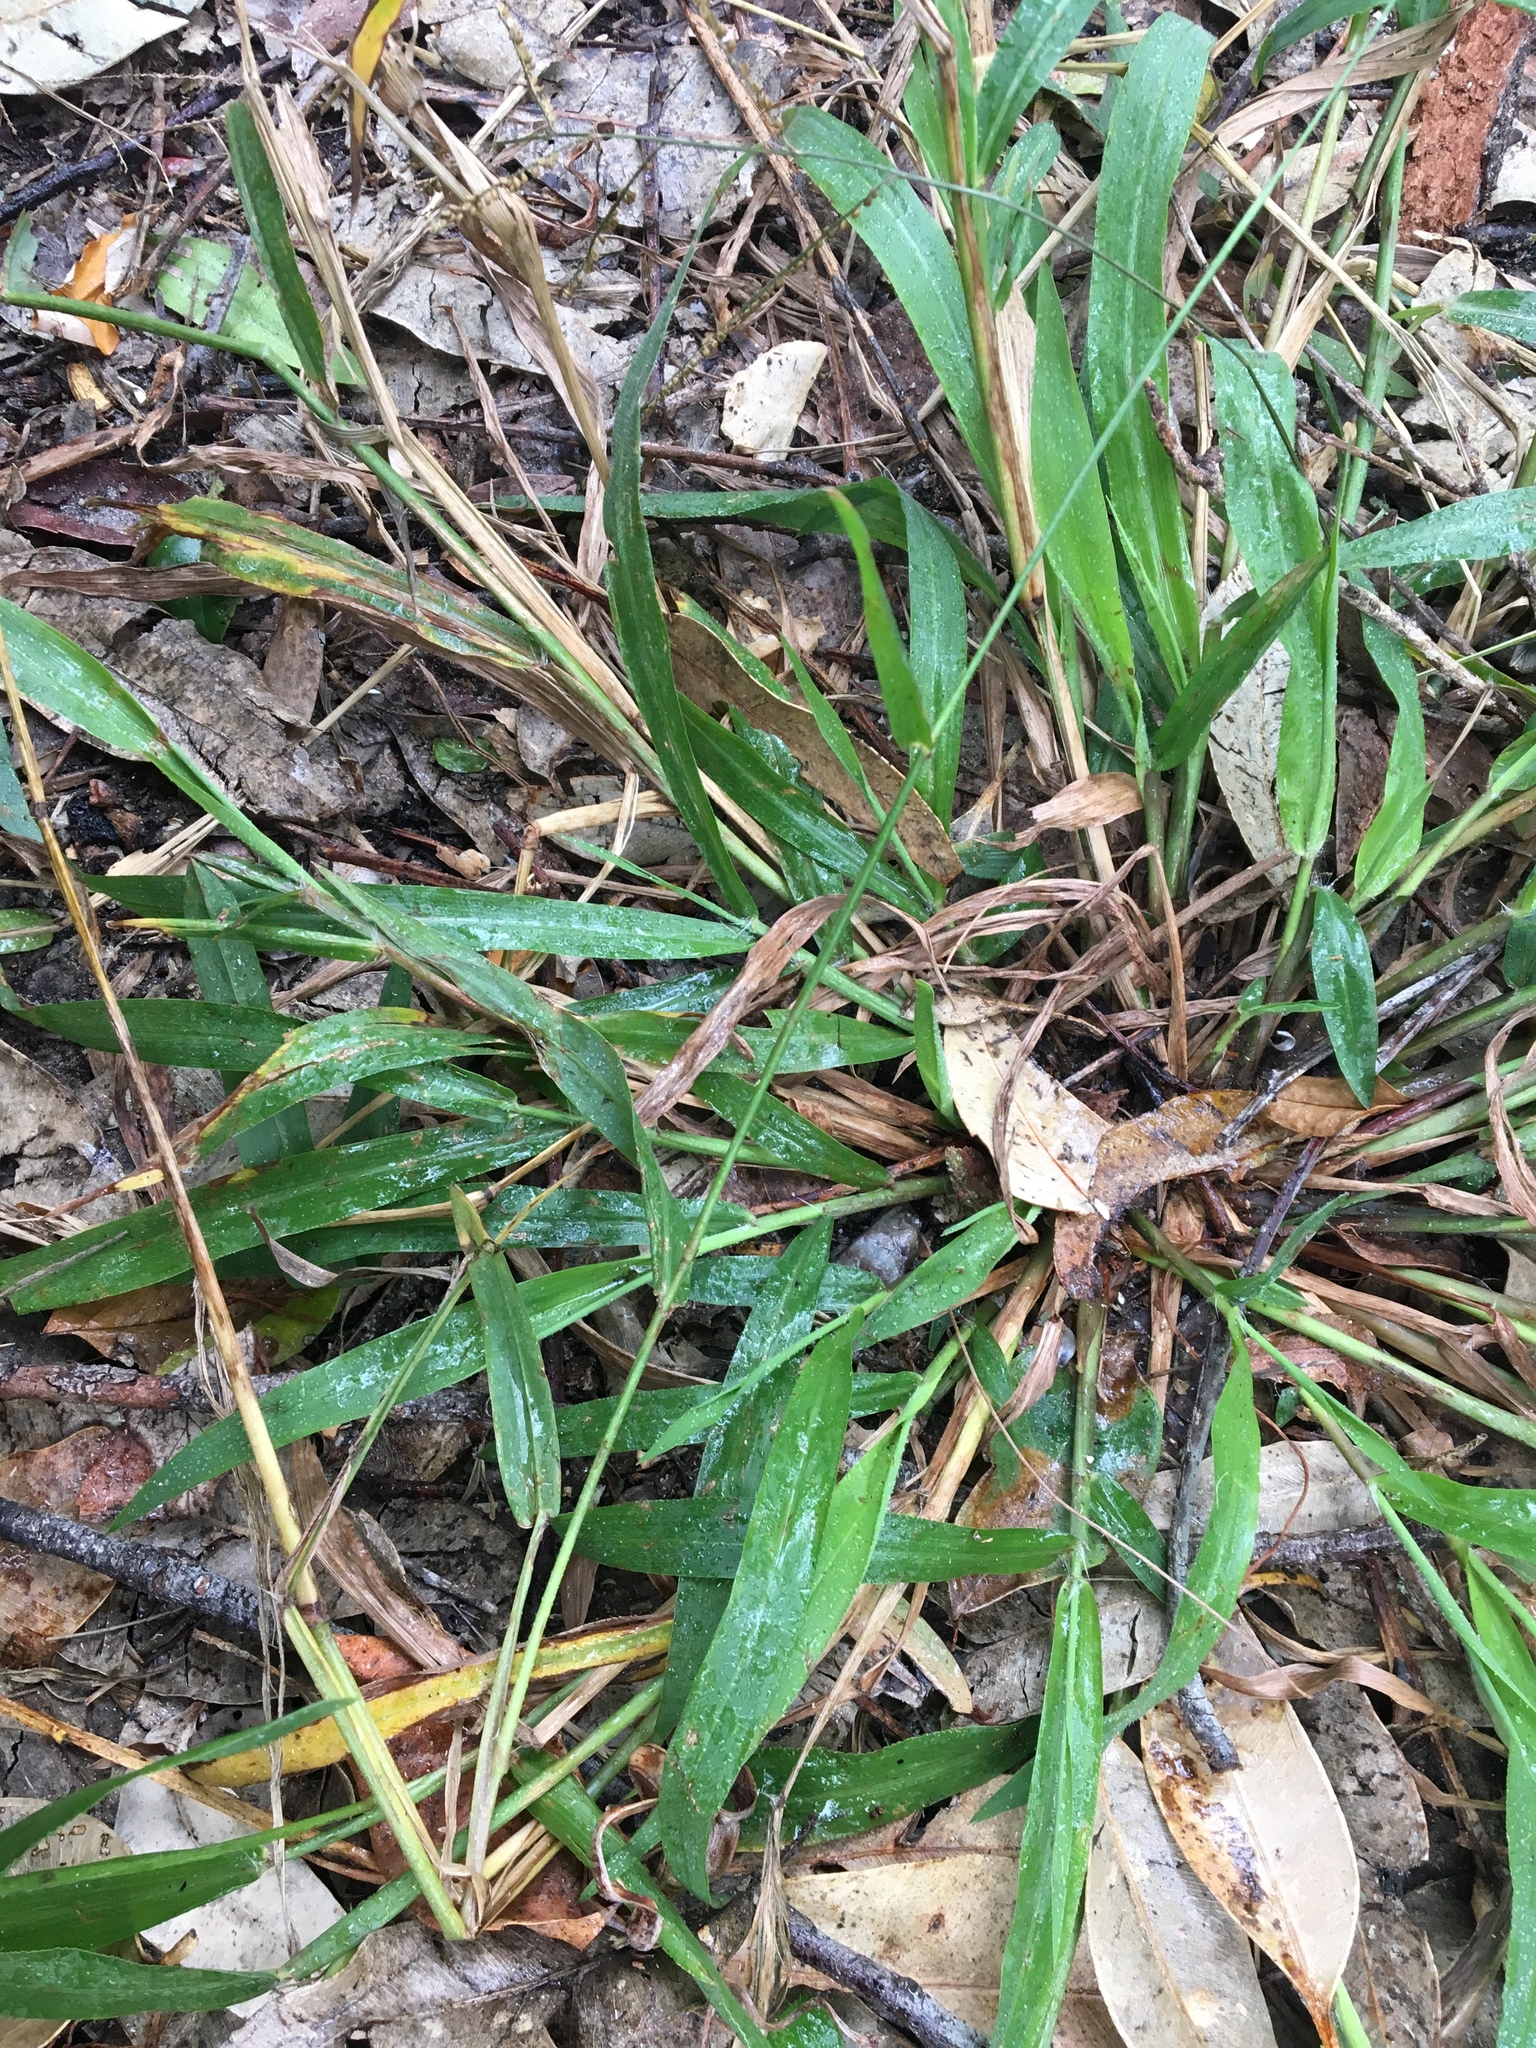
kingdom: Plantae
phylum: Tracheophyta
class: Liliopsida
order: Poales
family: Poaceae
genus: Paspalum
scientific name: Paspalum mandiocanum
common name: Paspalum
